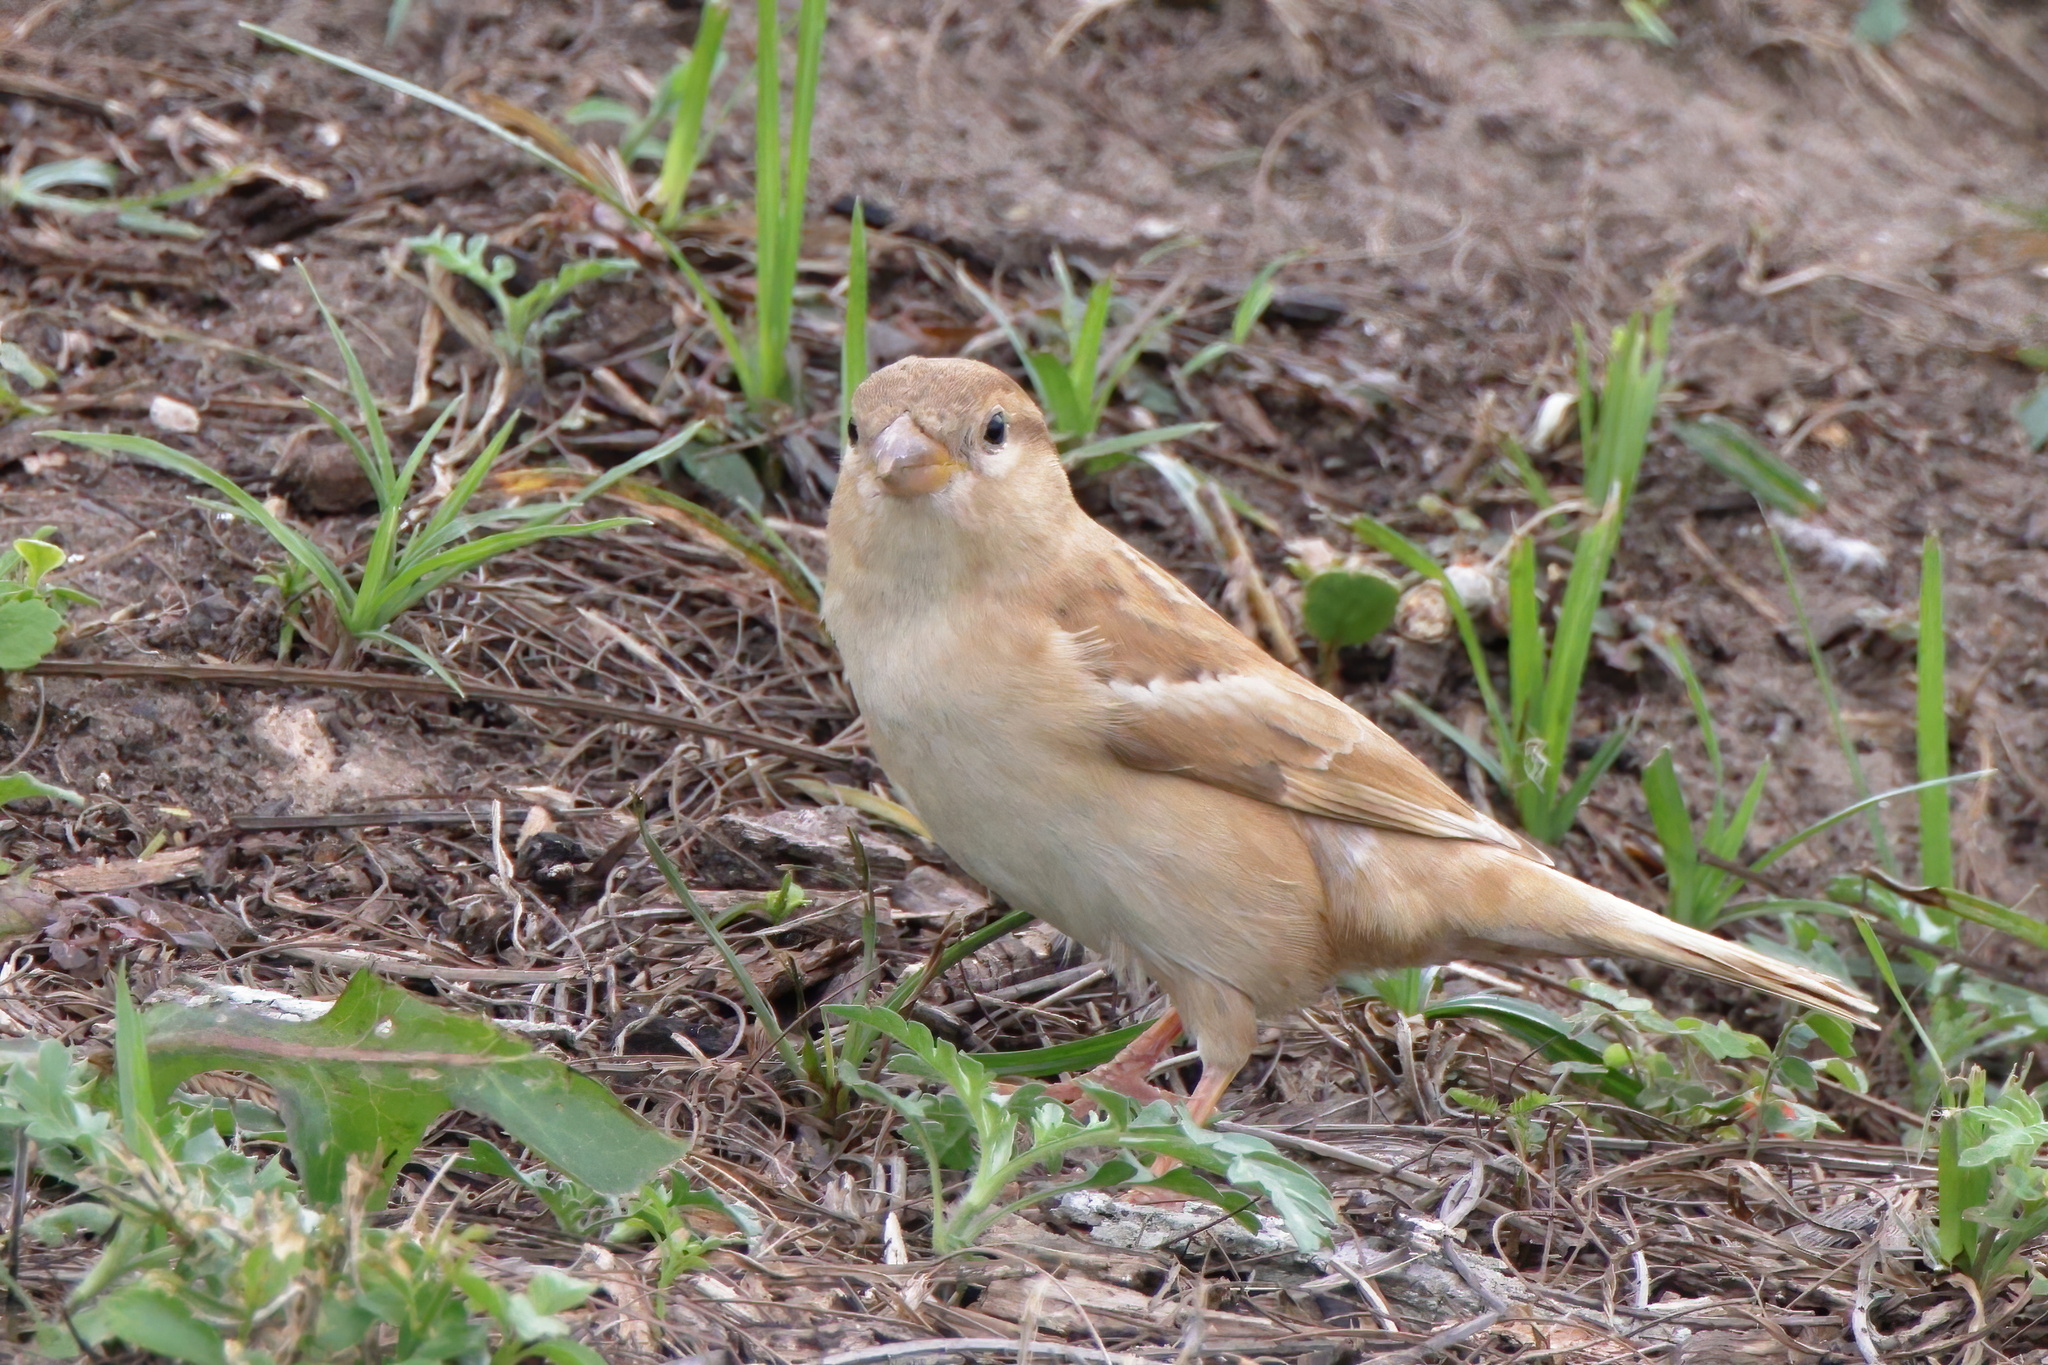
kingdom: Animalia
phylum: Chordata
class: Aves
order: Passeriformes
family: Passeridae
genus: Passer
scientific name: Passer domesticus
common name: House sparrow
